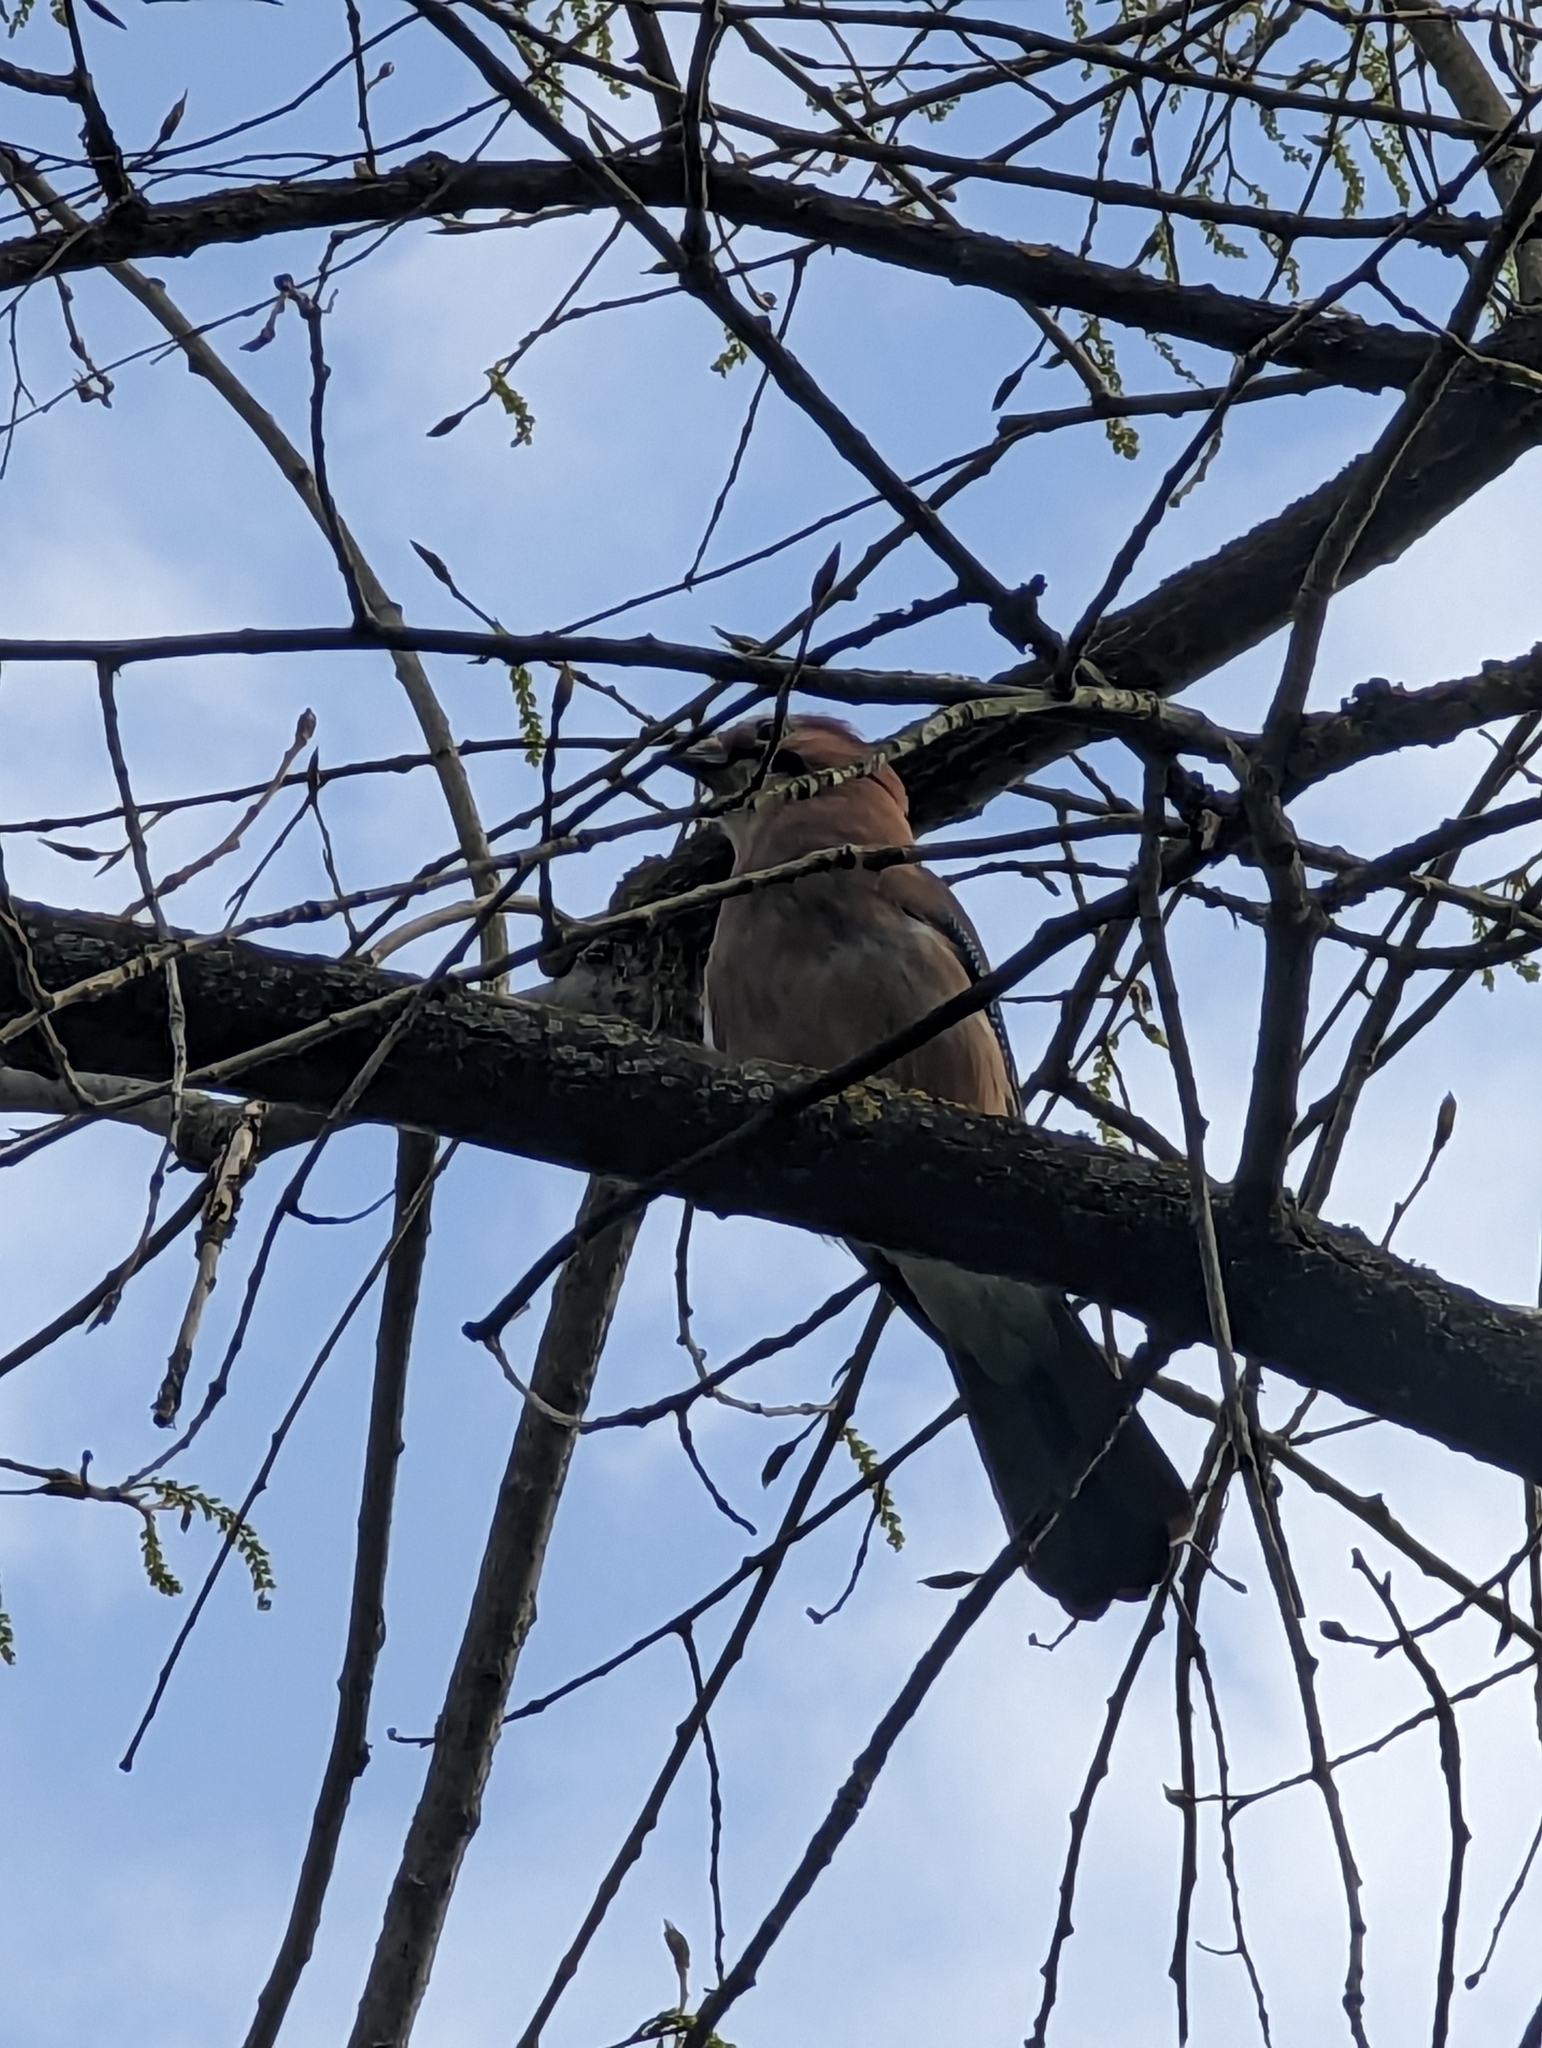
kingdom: Animalia
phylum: Chordata
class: Aves
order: Passeriformes
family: Corvidae
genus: Garrulus
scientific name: Garrulus glandarius
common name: Eurasian jay
